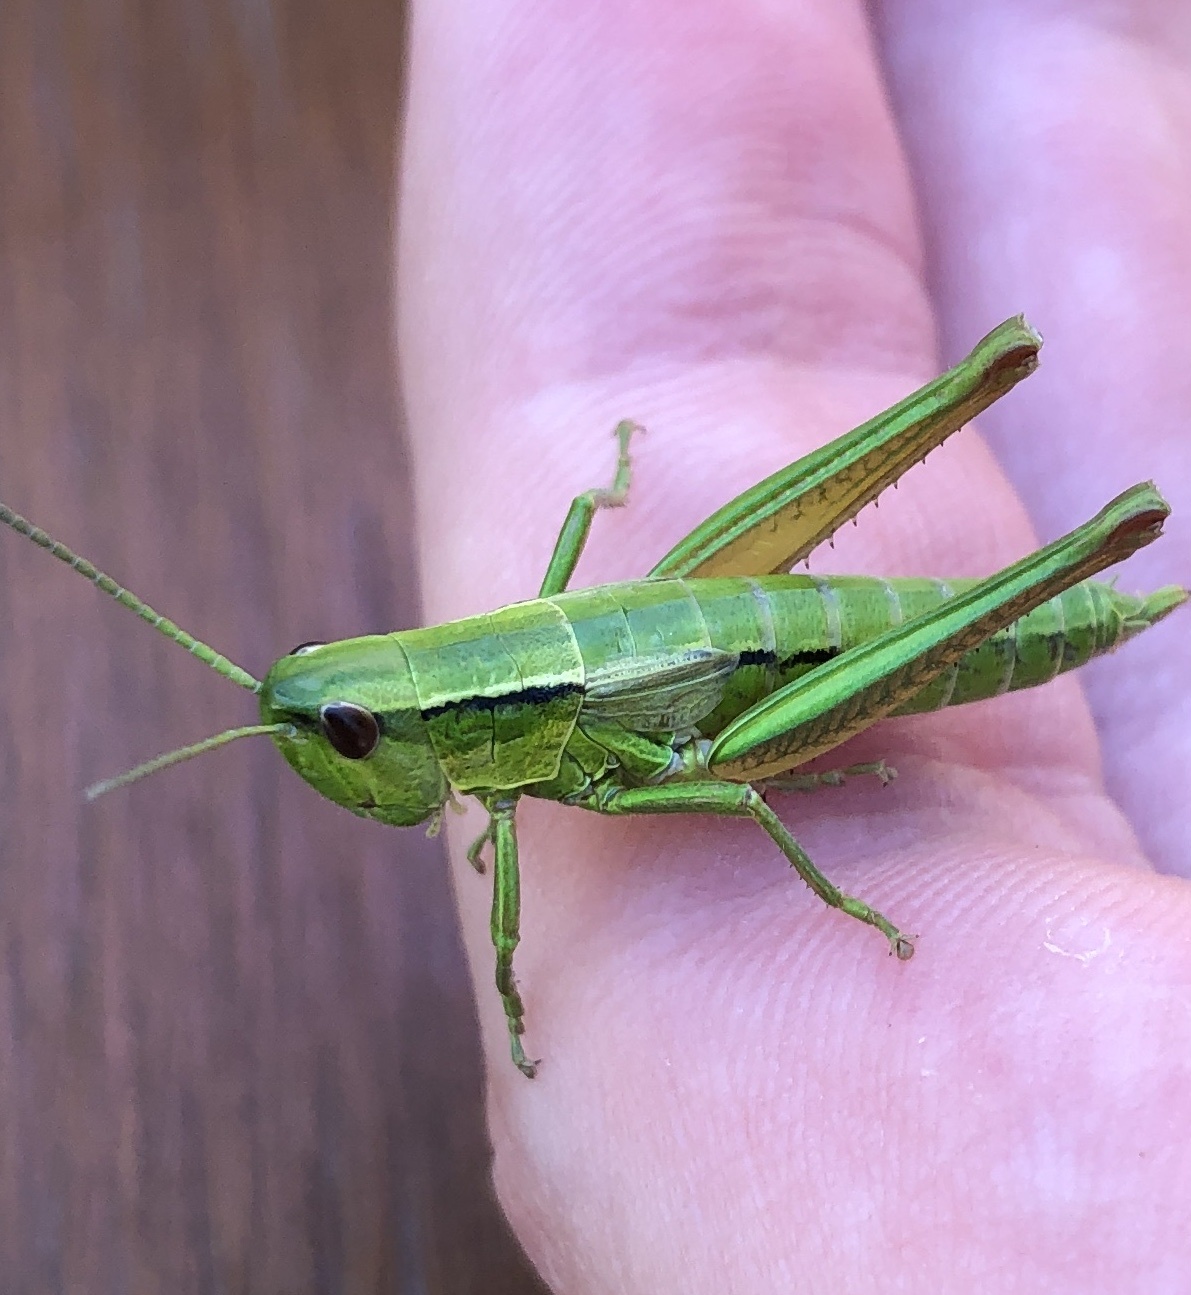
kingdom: Animalia
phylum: Arthropoda
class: Insecta
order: Orthoptera
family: Acrididae
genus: Euthystira
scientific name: Euthystira brachyptera
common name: Small gold grasshopper
